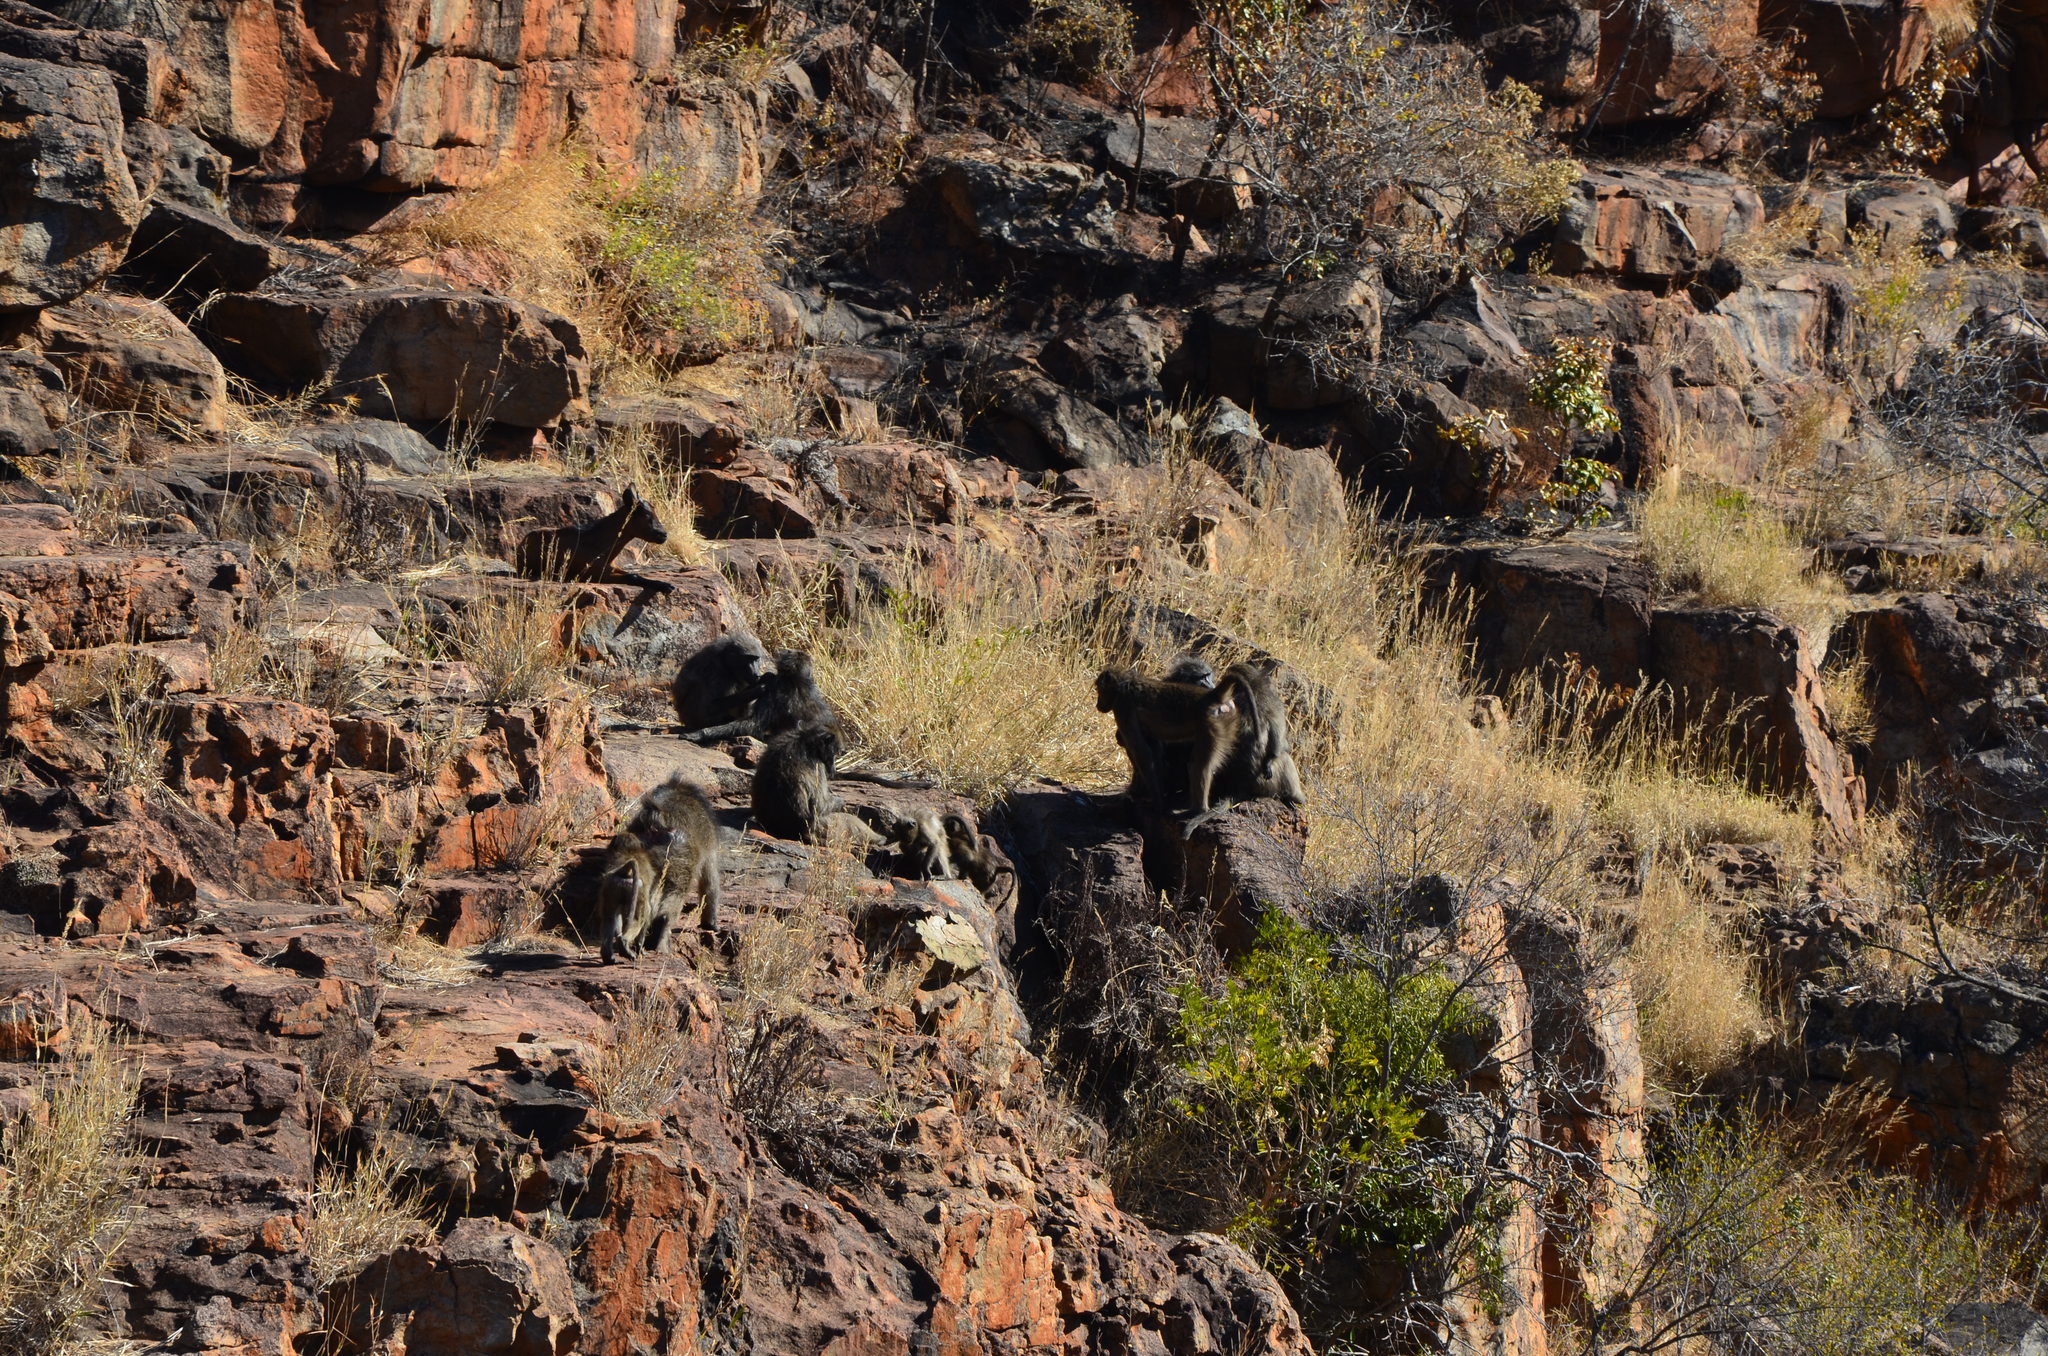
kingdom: Animalia
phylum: Chordata
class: Mammalia
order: Primates
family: Cercopithecidae
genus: Papio
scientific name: Papio ursinus
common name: Chacma baboon
